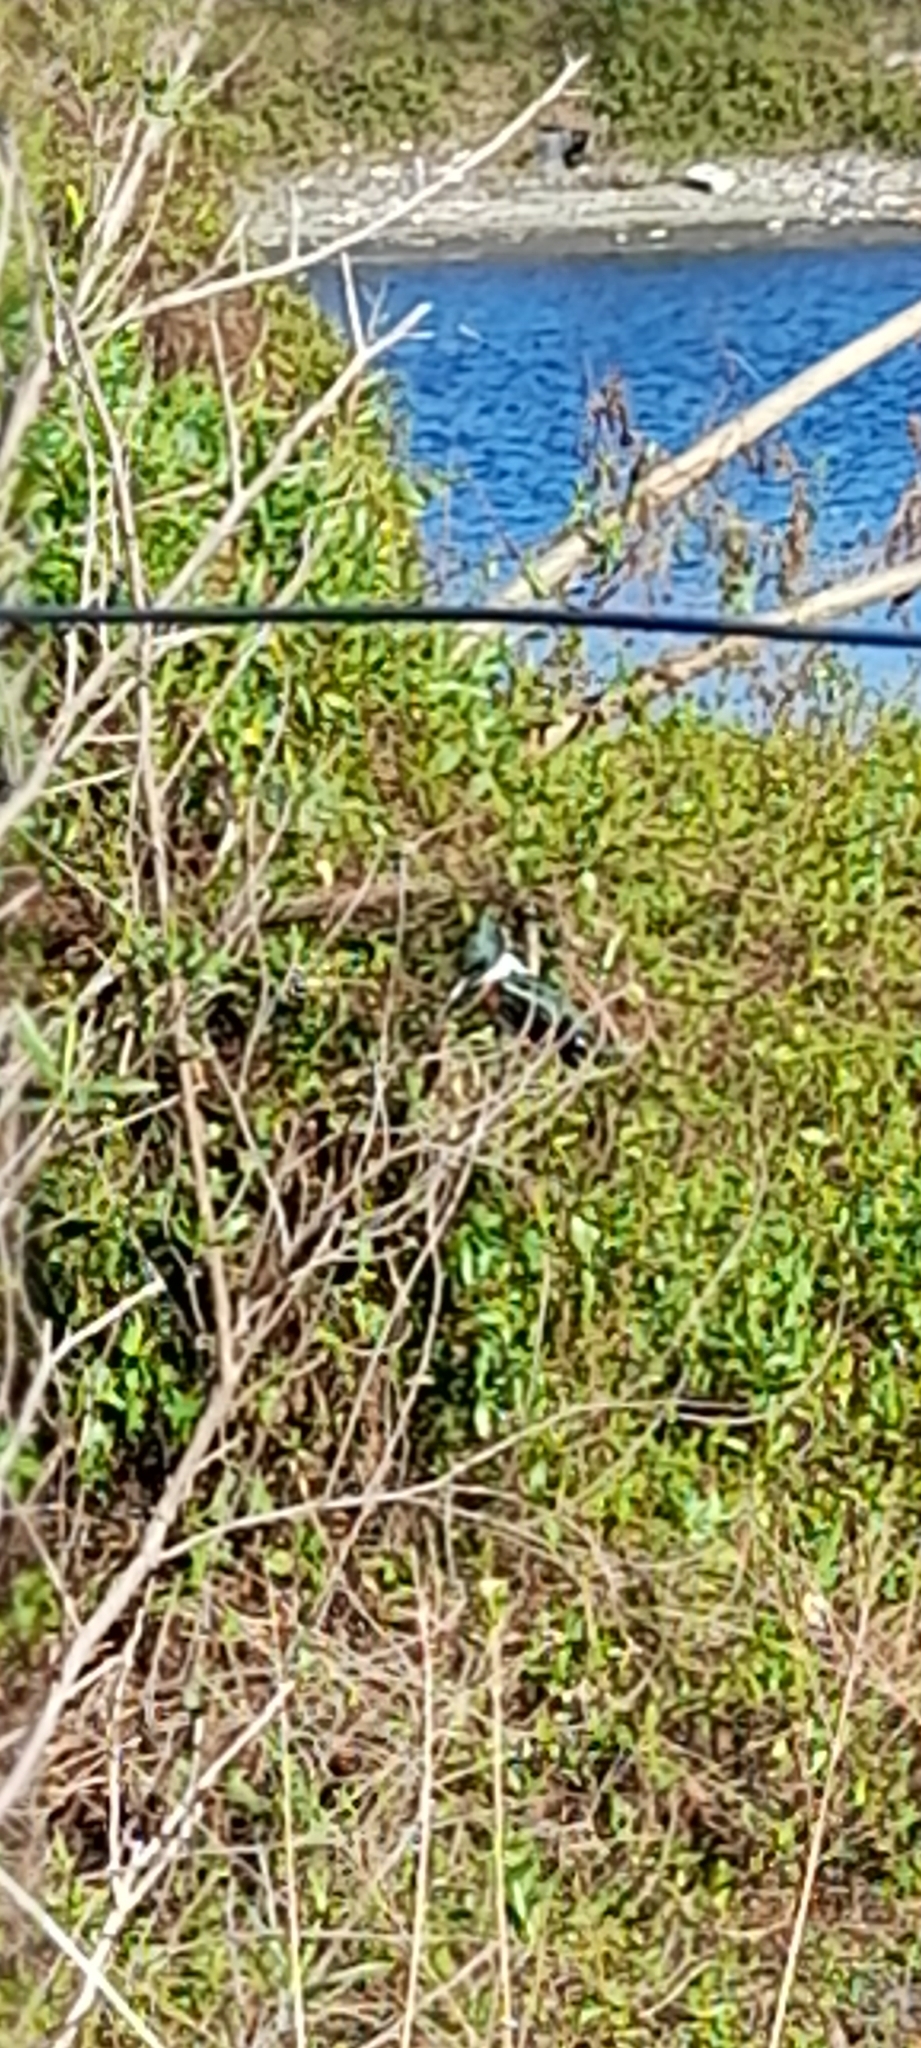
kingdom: Animalia
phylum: Chordata
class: Aves
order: Coraciiformes
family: Alcedinidae
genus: Chloroceryle
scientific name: Chloroceryle amazona
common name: Amazon kingfisher
